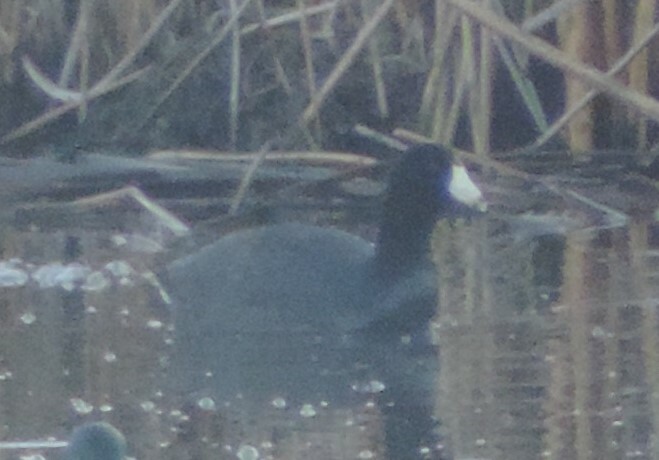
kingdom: Animalia
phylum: Chordata
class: Aves
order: Gruiformes
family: Rallidae
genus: Fulica
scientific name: Fulica americana
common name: American coot
